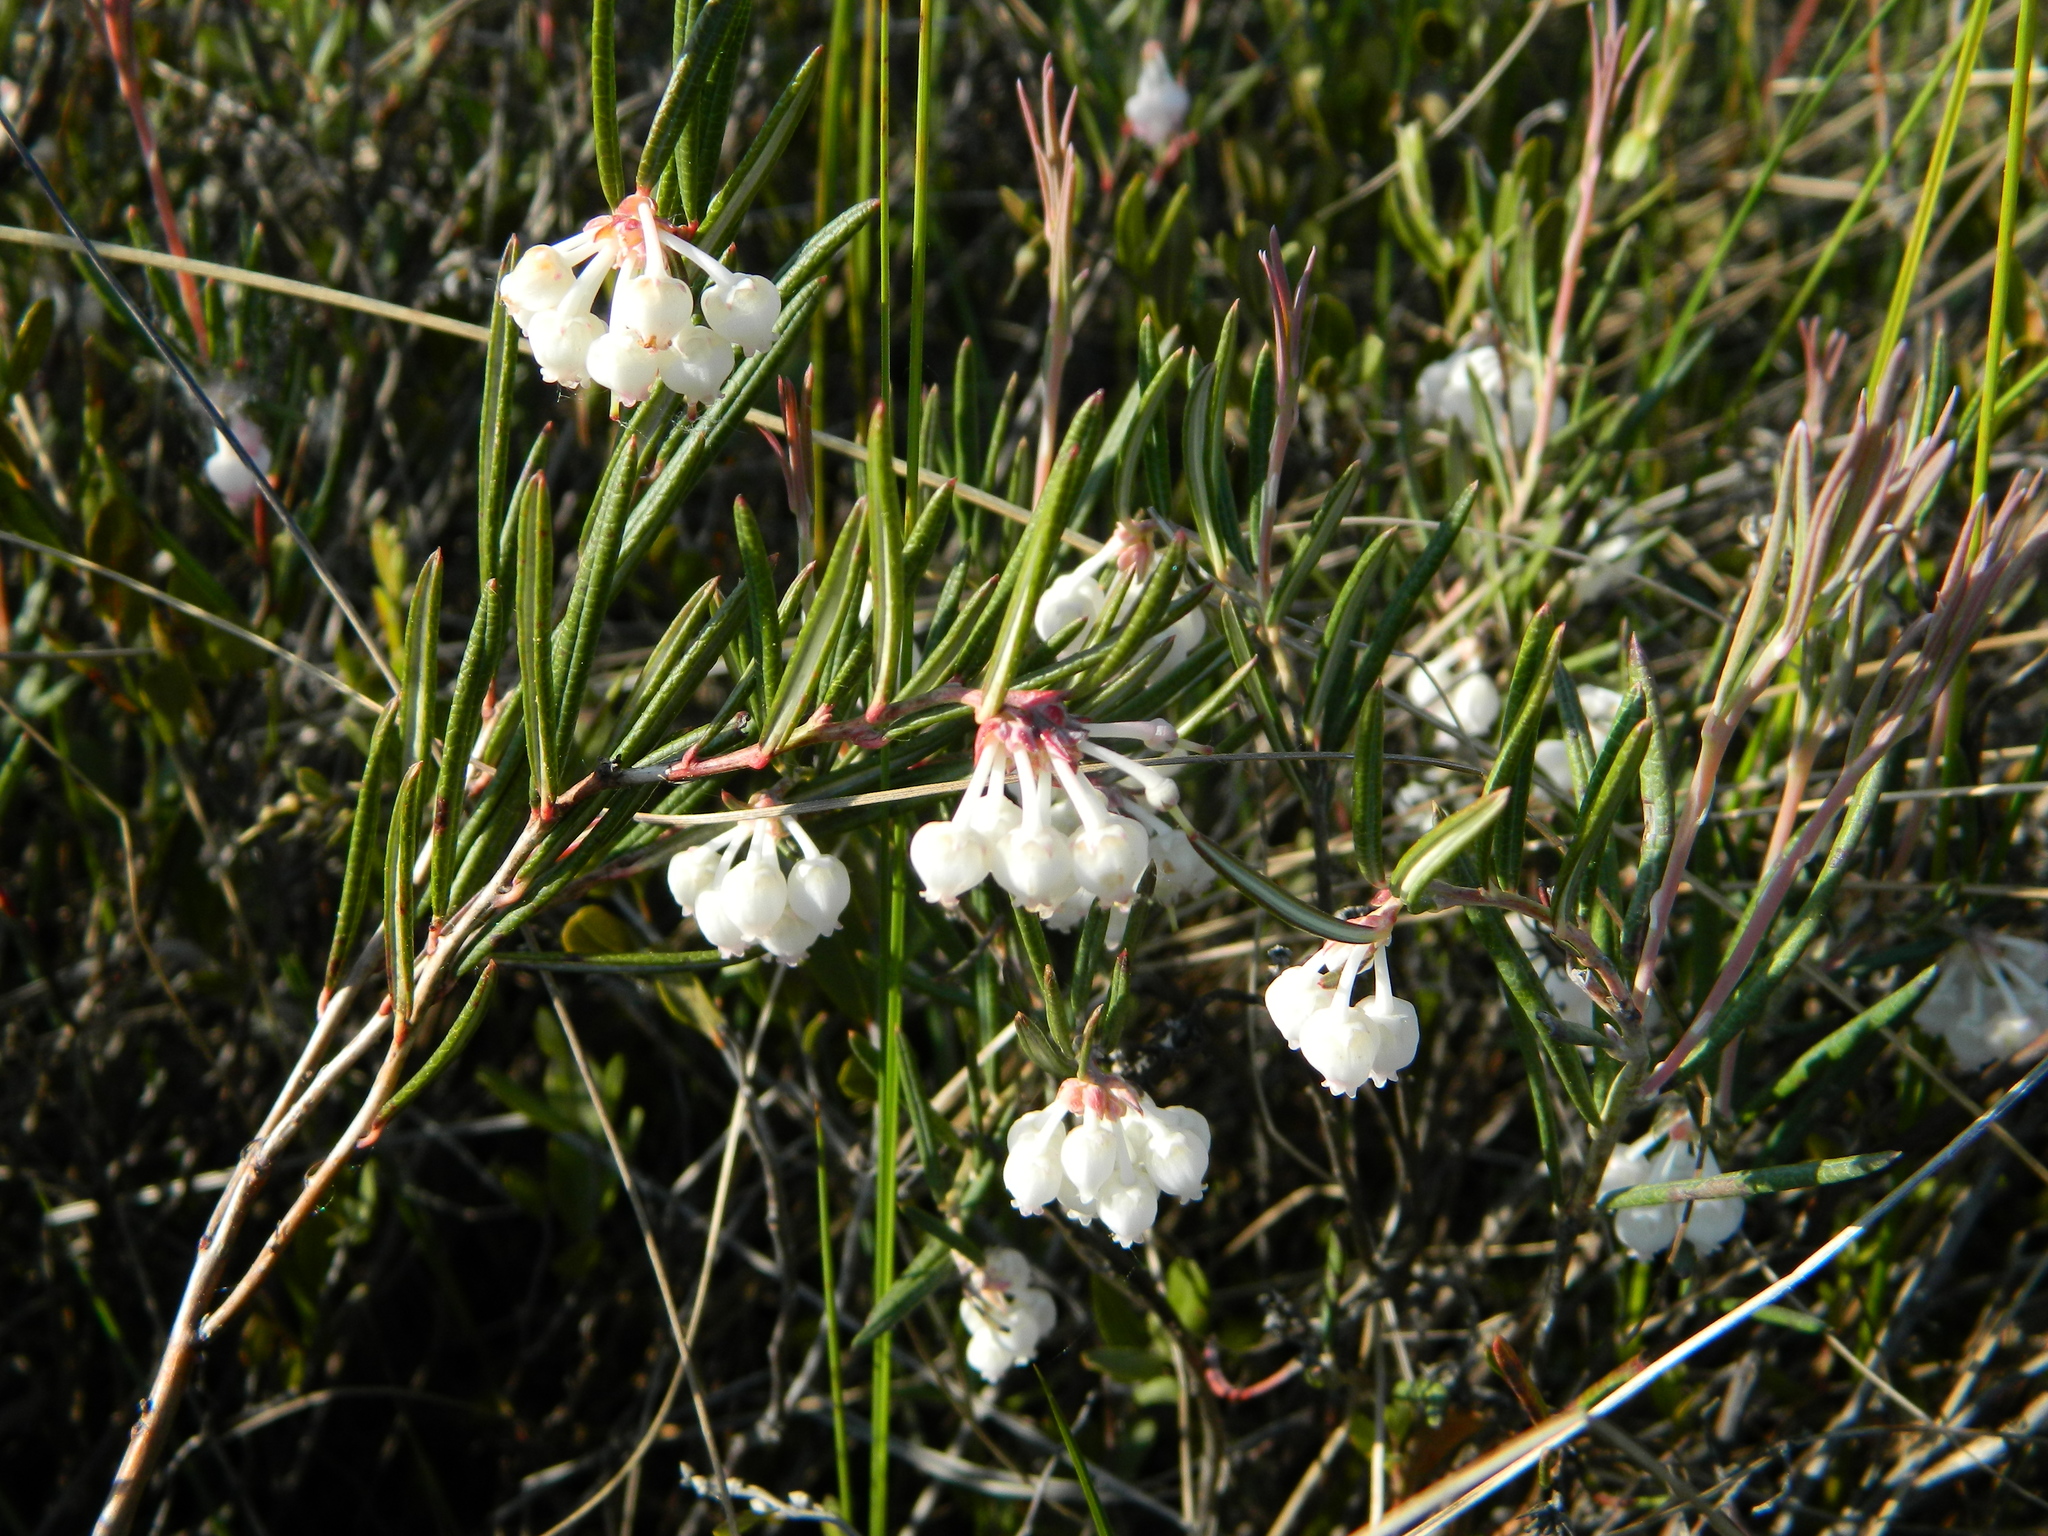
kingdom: Plantae
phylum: Tracheophyta
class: Magnoliopsida
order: Ericales
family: Ericaceae
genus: Andromeda
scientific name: Andromeda polifolia
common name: Bog-rosemary
